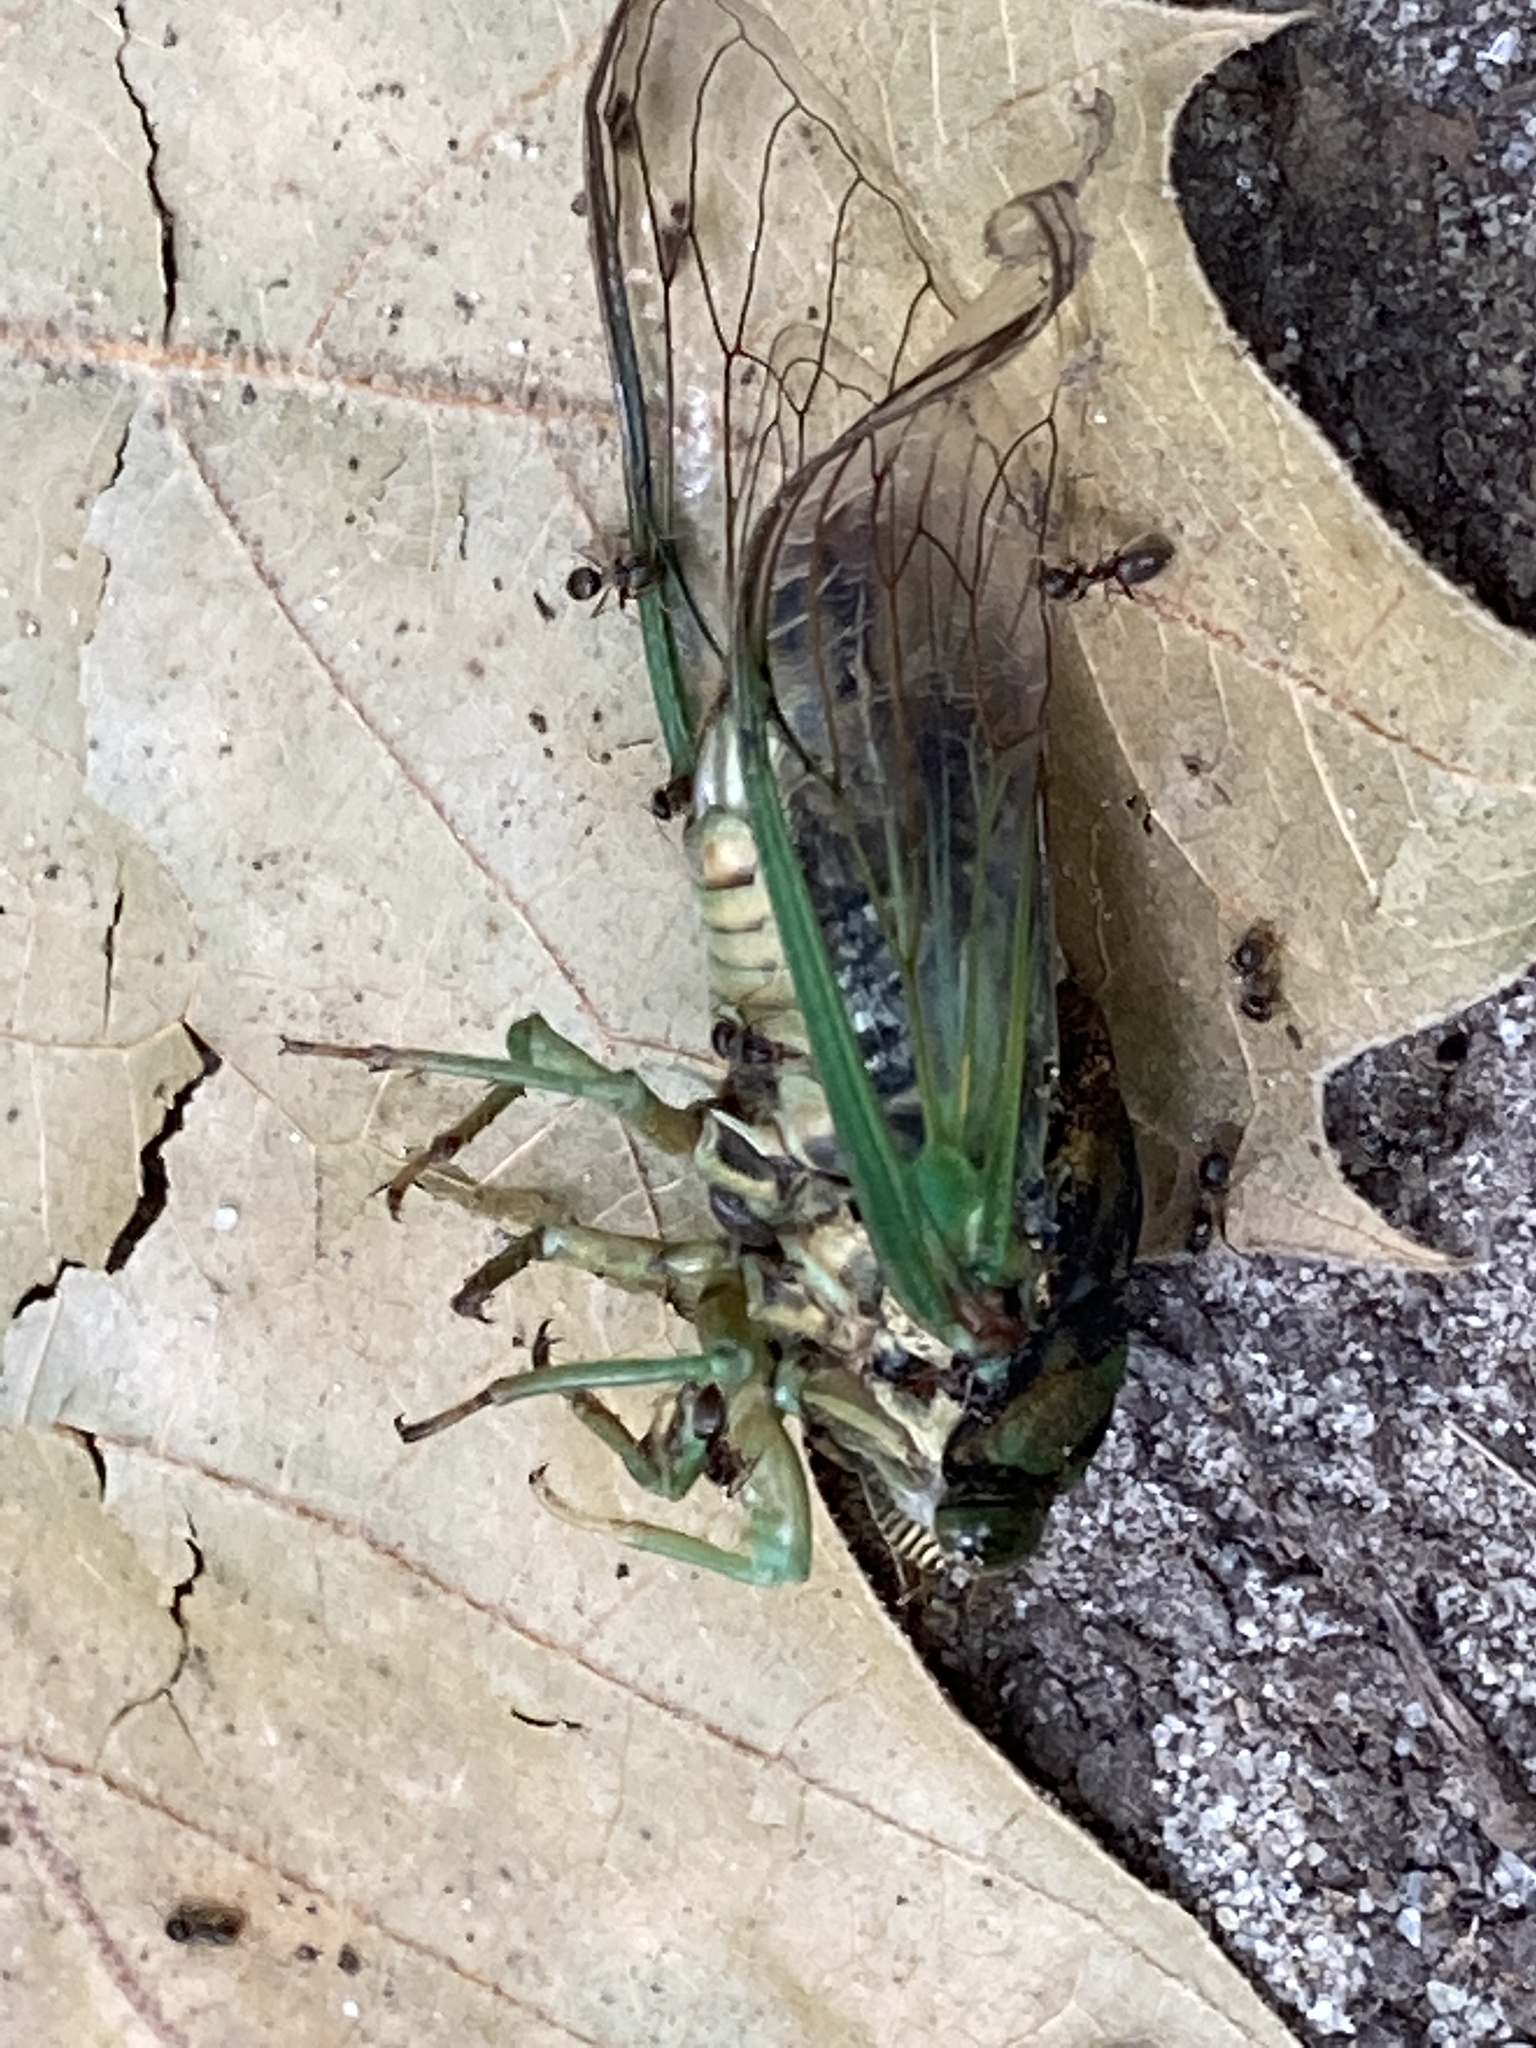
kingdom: Animalia
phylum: Arthropoda
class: Insecta
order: Hemiptera
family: Cicadidae
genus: Neotibicen
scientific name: Neotibicen tibicen
